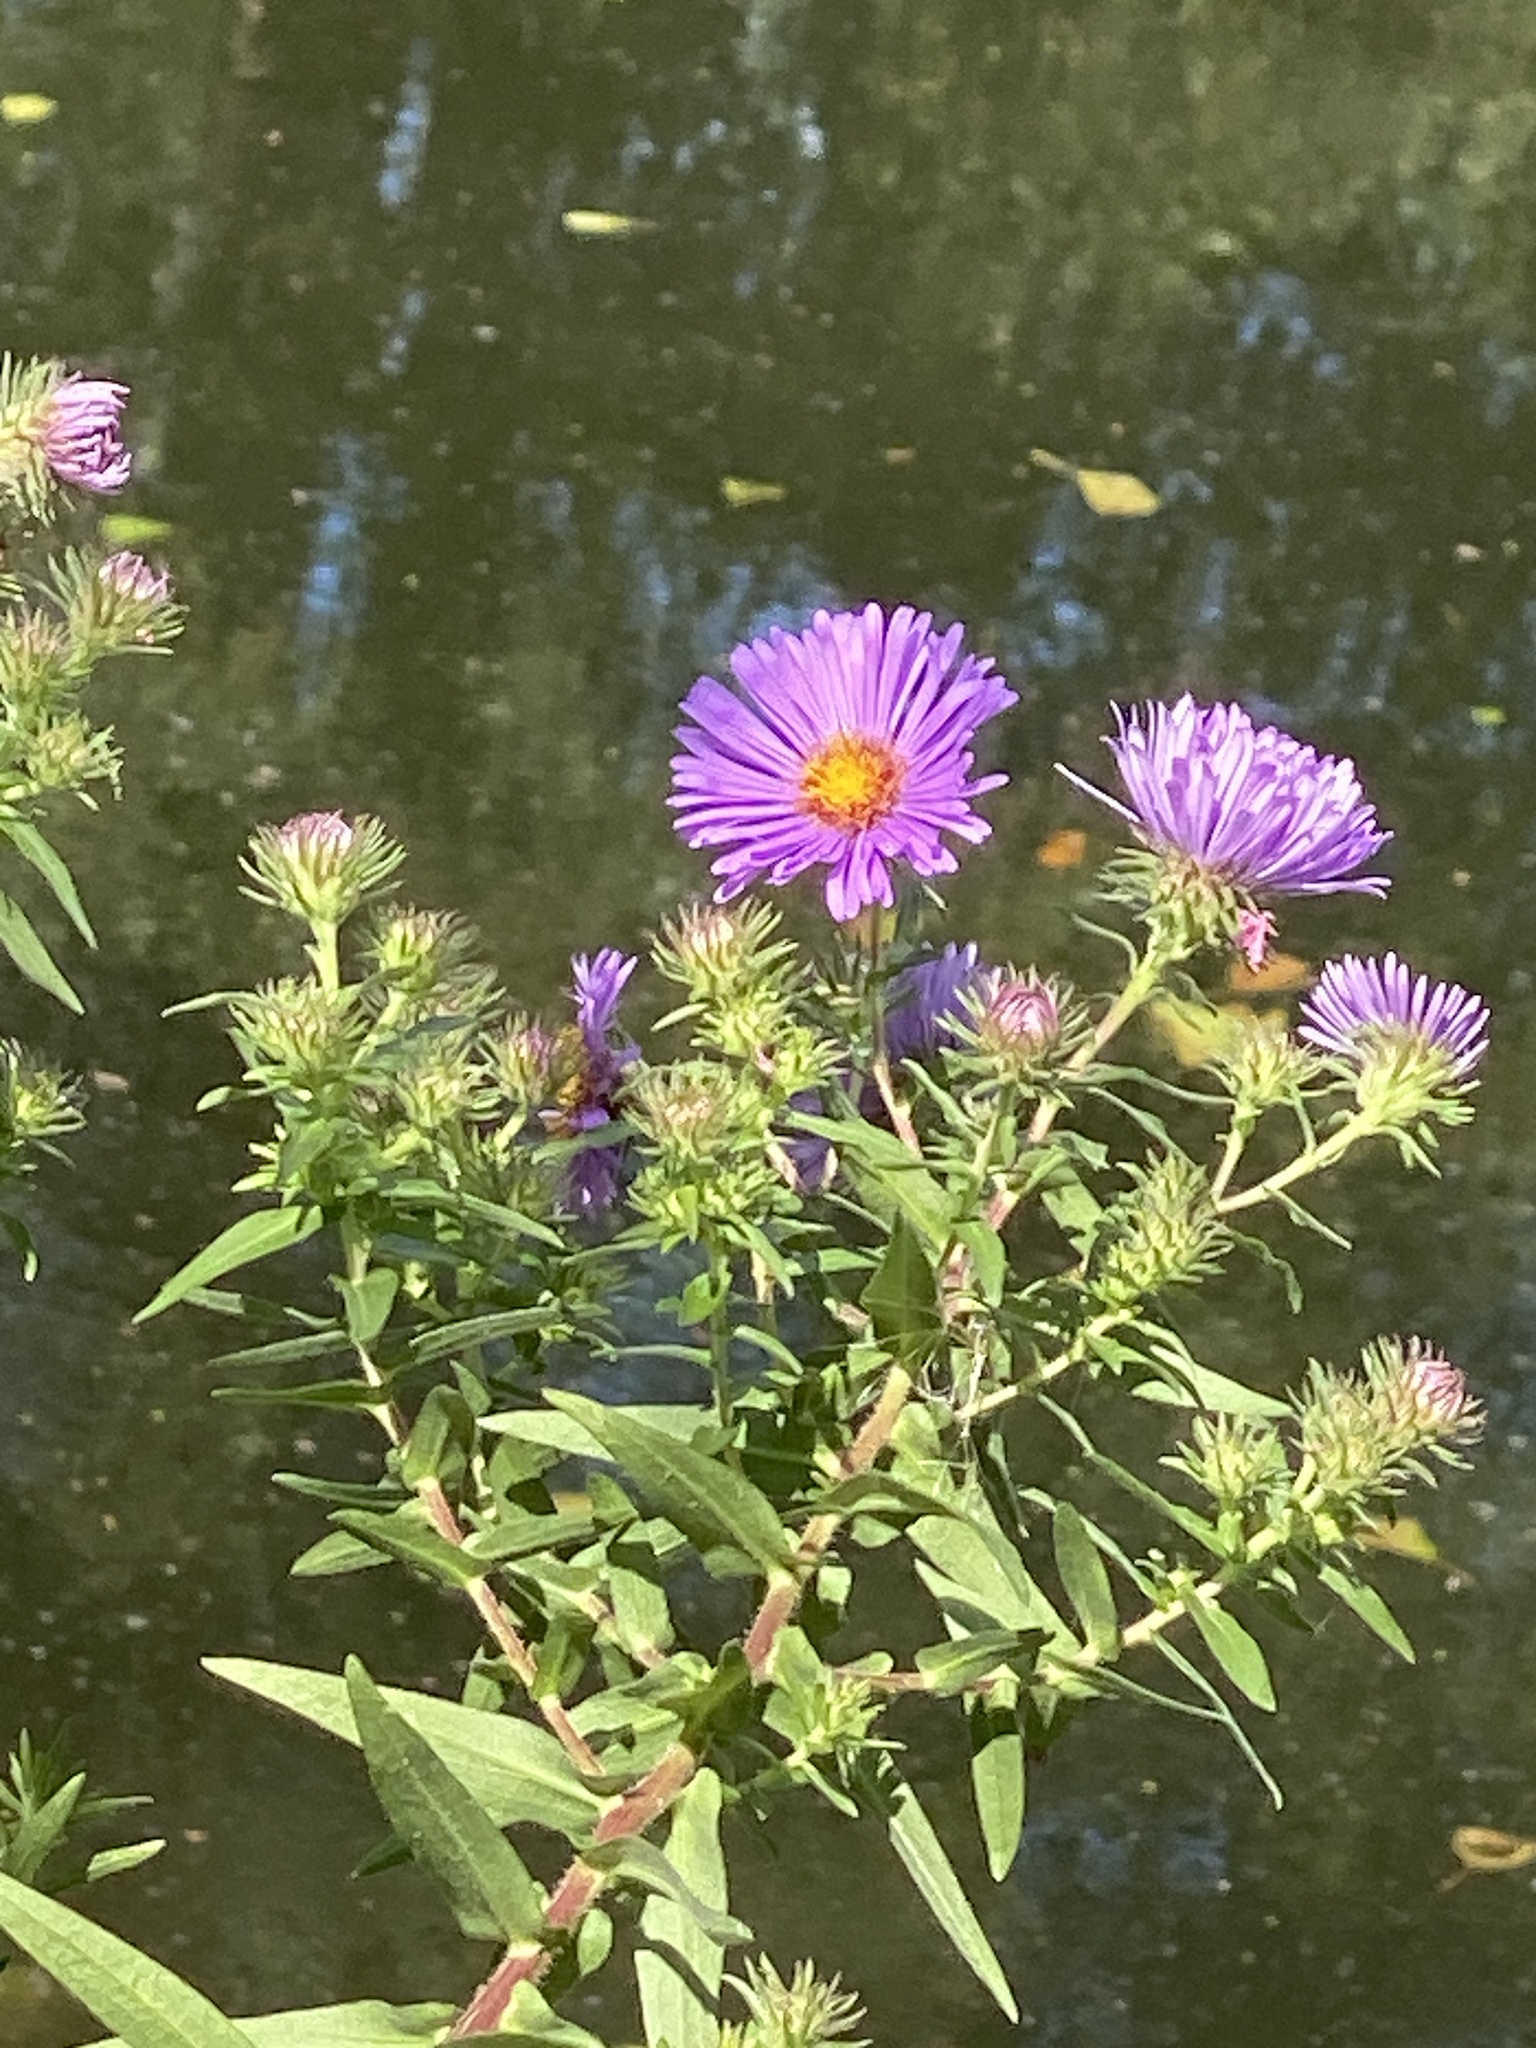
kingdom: Plantae
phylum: Tracheophyta
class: Magnoliopsida
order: Asterales
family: Asteraceae
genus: Symphyotrichum
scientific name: Symphyotrichum novae-angliae
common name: Michaelmas daisy
